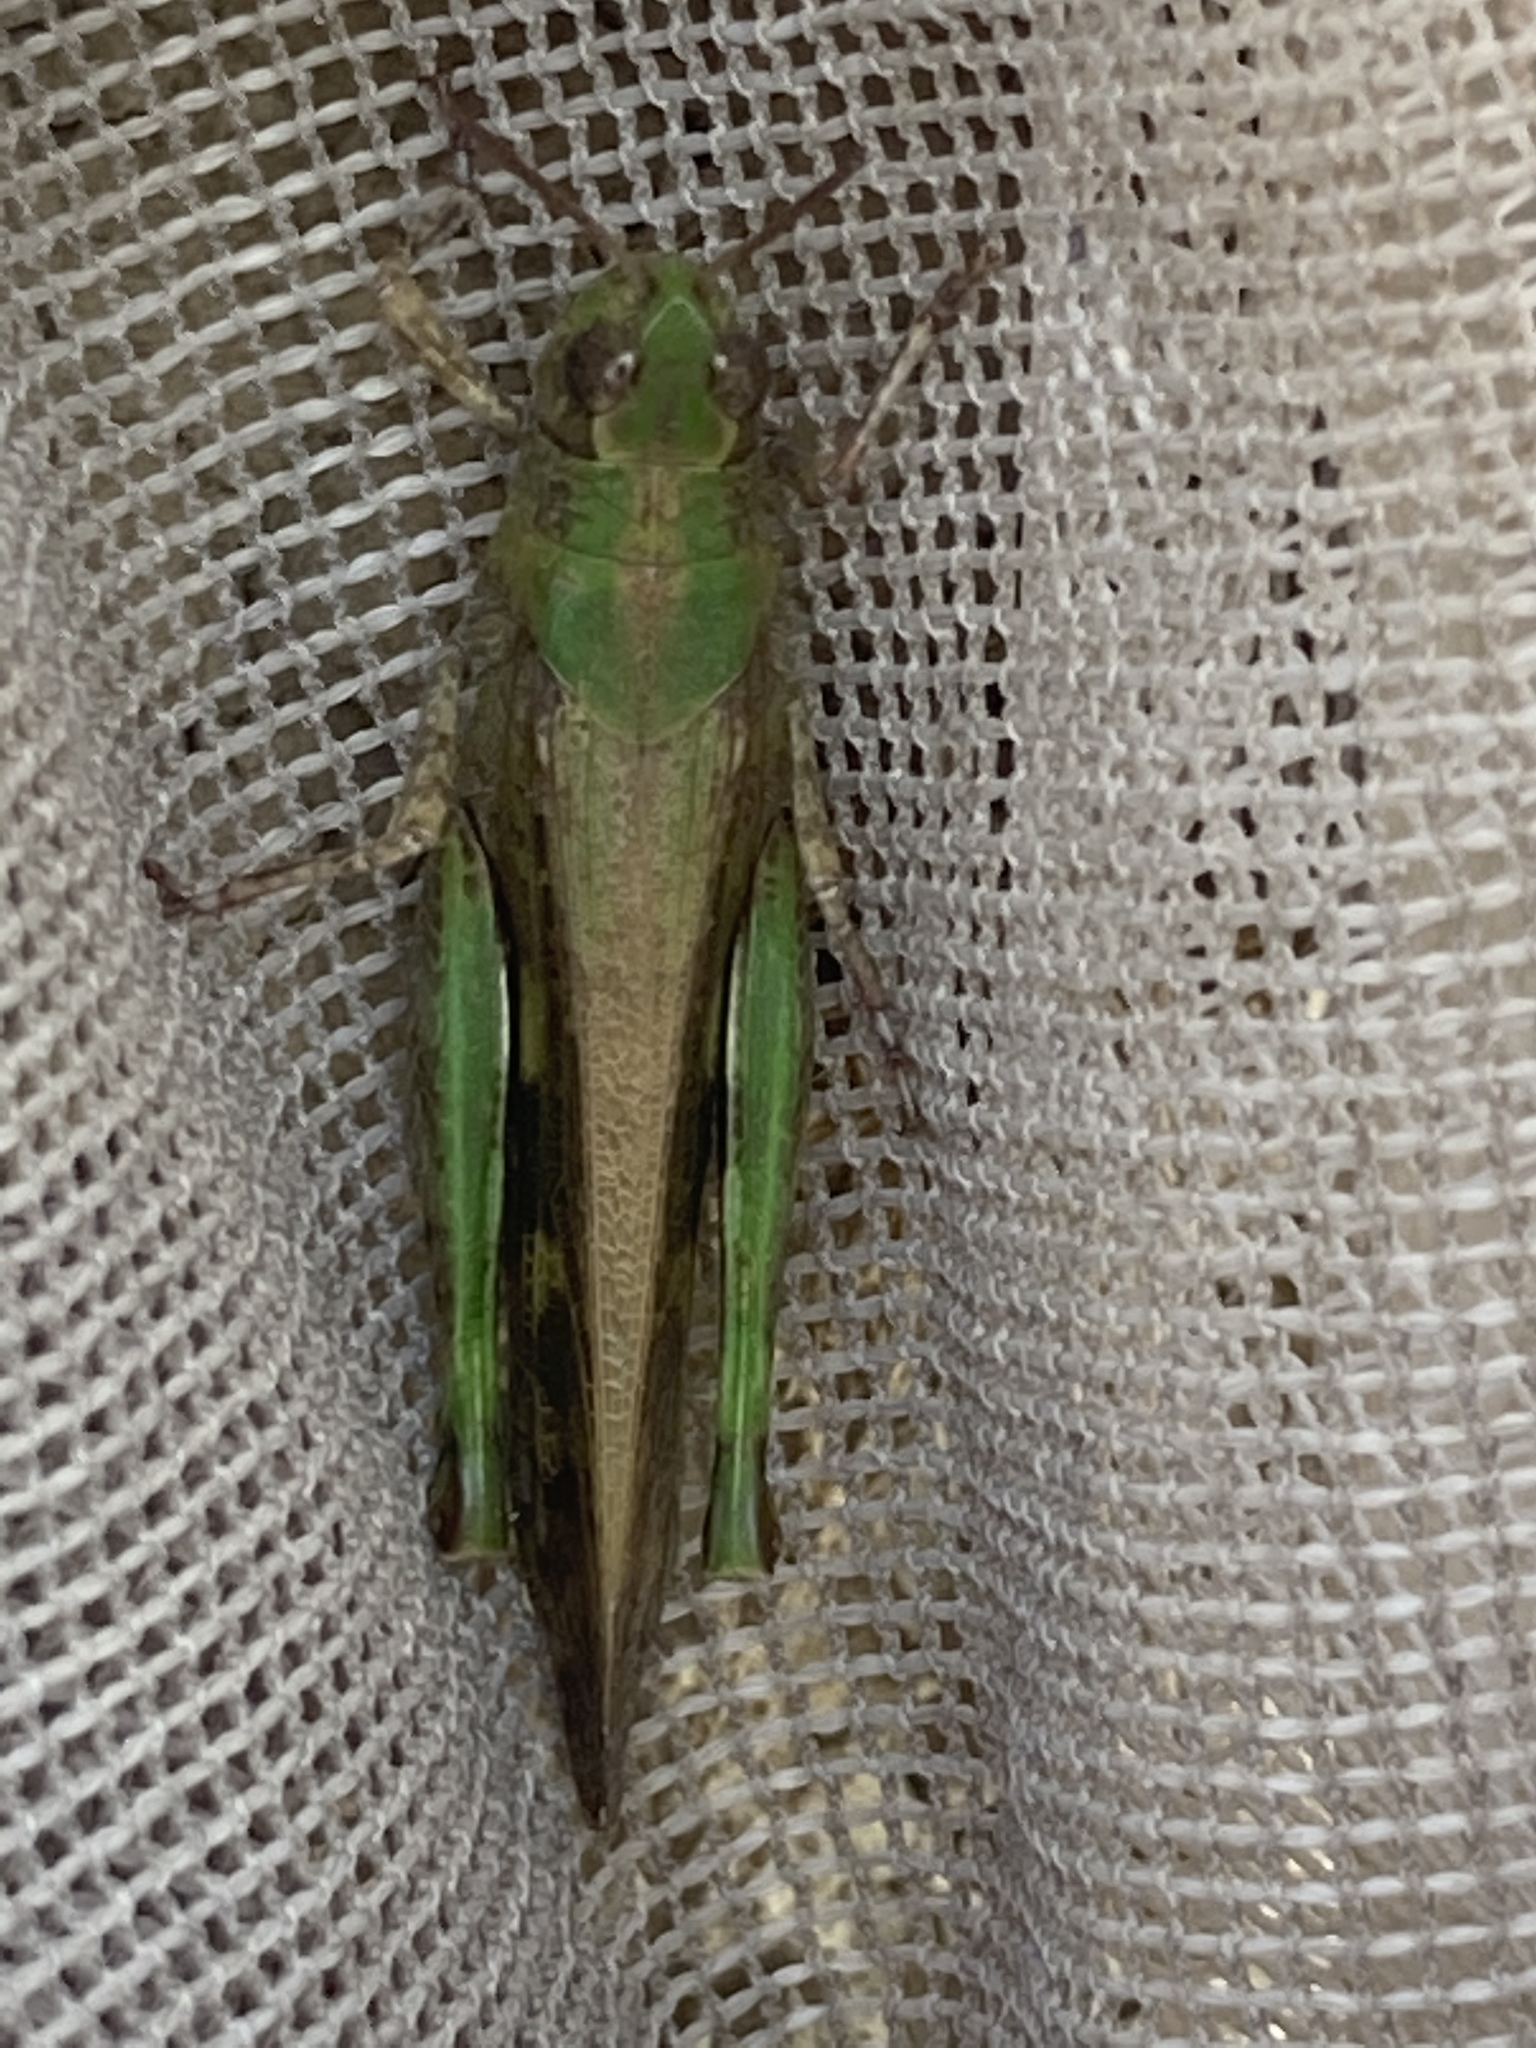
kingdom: Animalia
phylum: Arthropoda
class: Insecta
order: Orthoptera
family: Acrididae
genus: Aiolopus
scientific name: Aiolopus strepens
